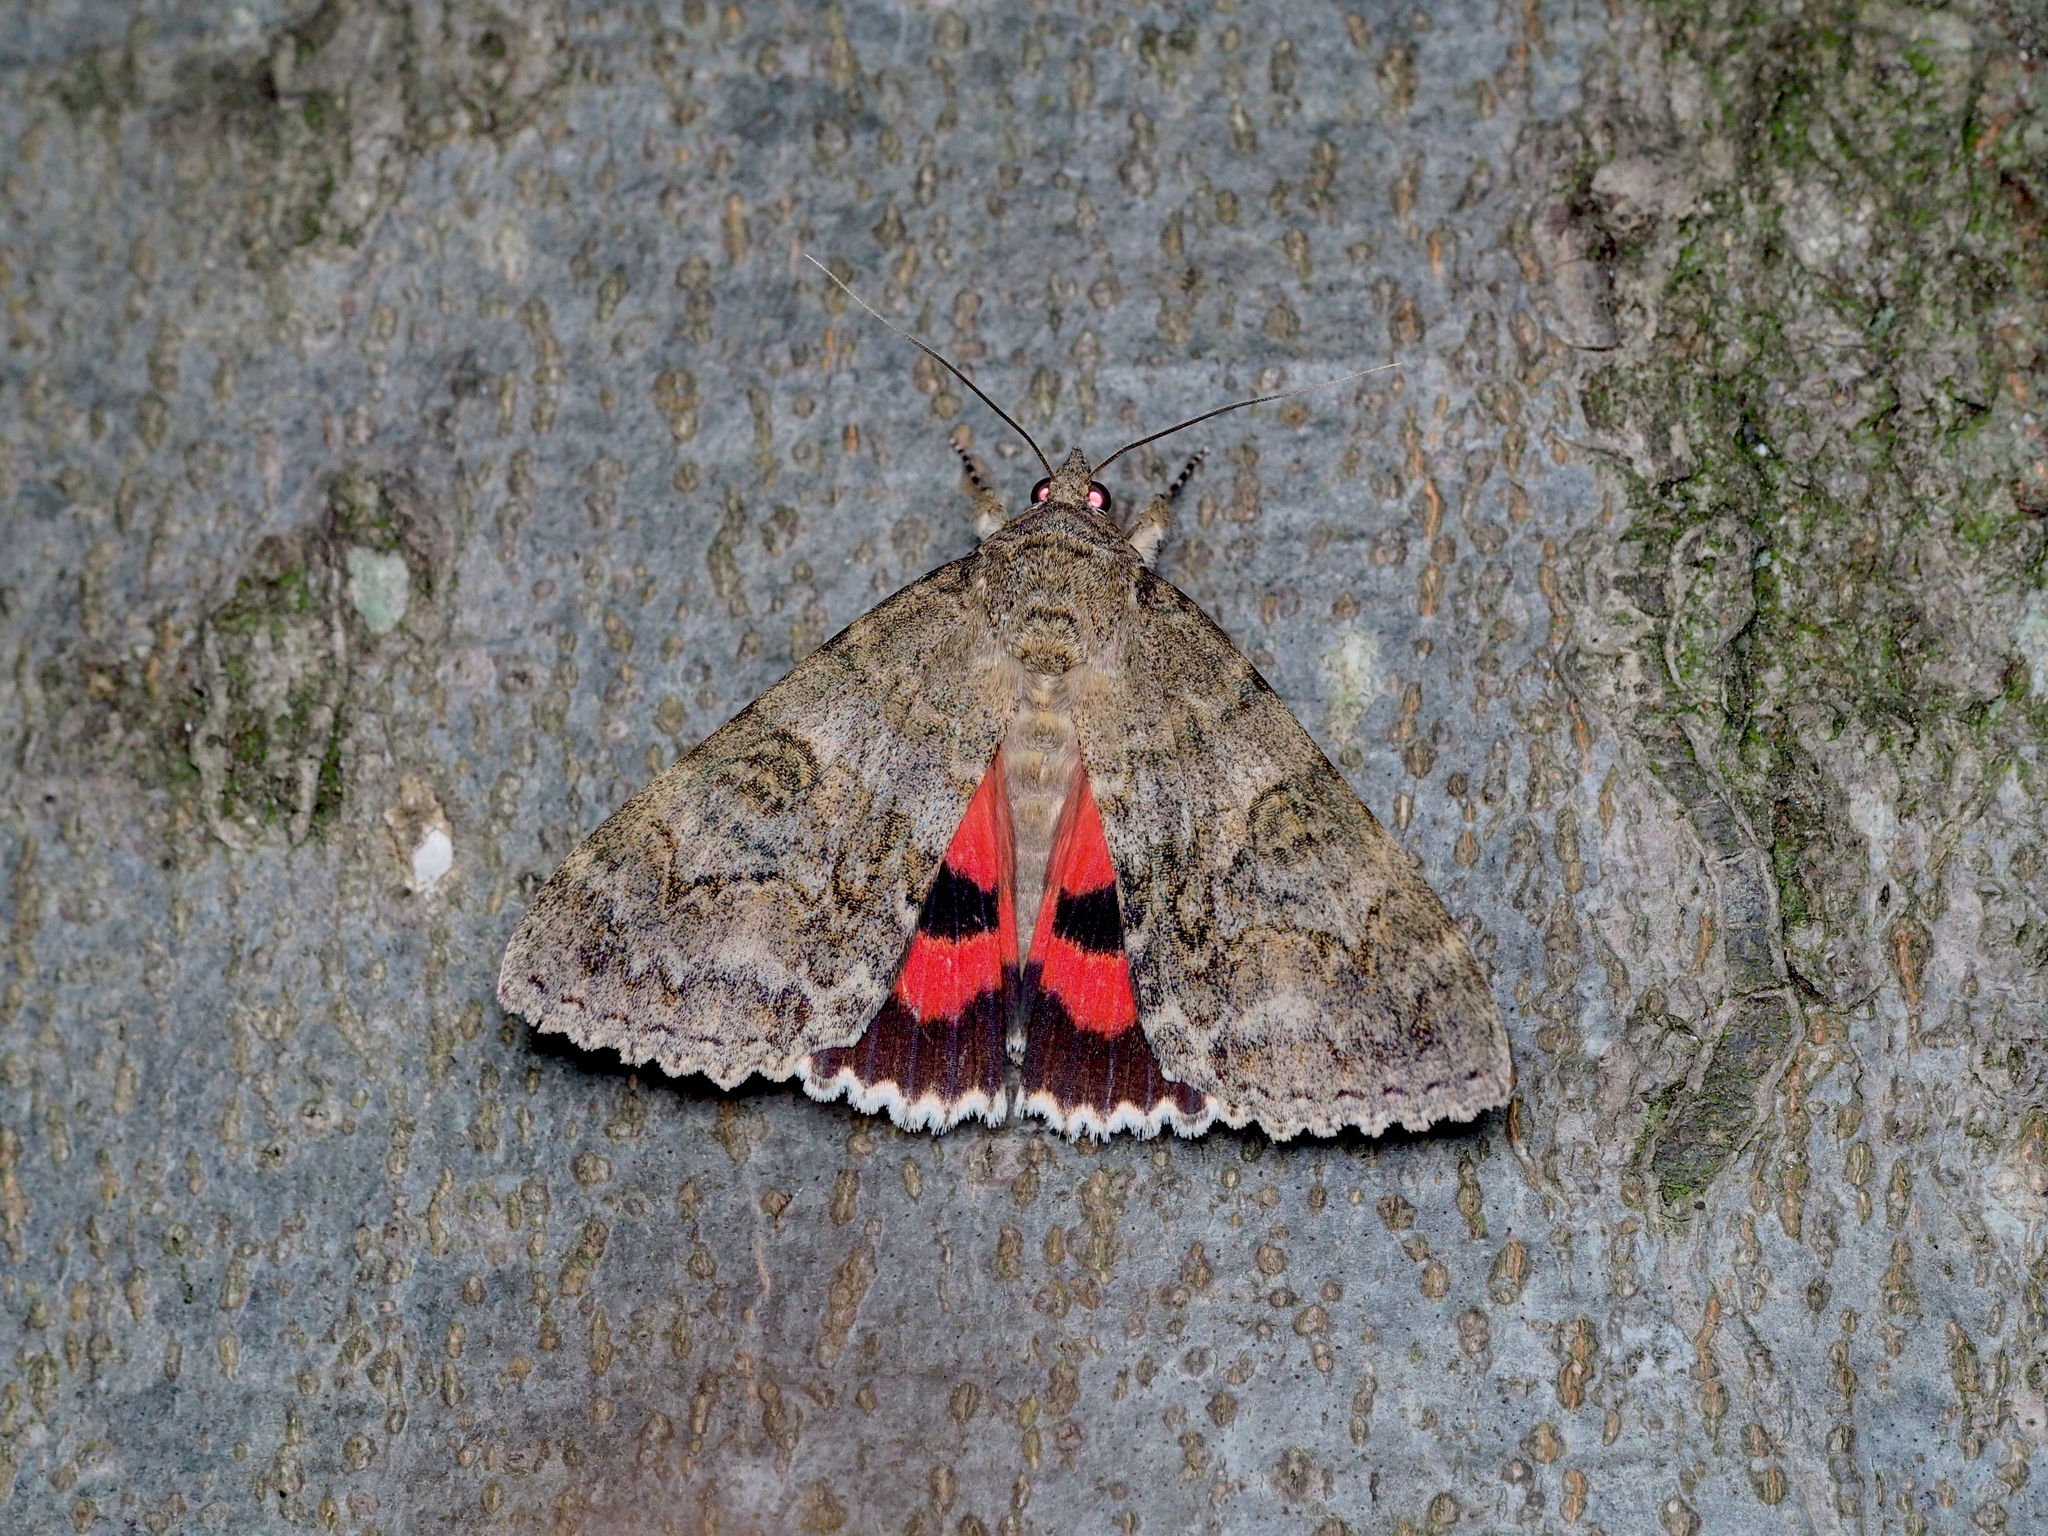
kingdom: Animalia
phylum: Arthropoda
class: Insecta
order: Lepidoptera
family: Erebidae
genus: Catocala
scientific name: Catocala nupta
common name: Red underwing
